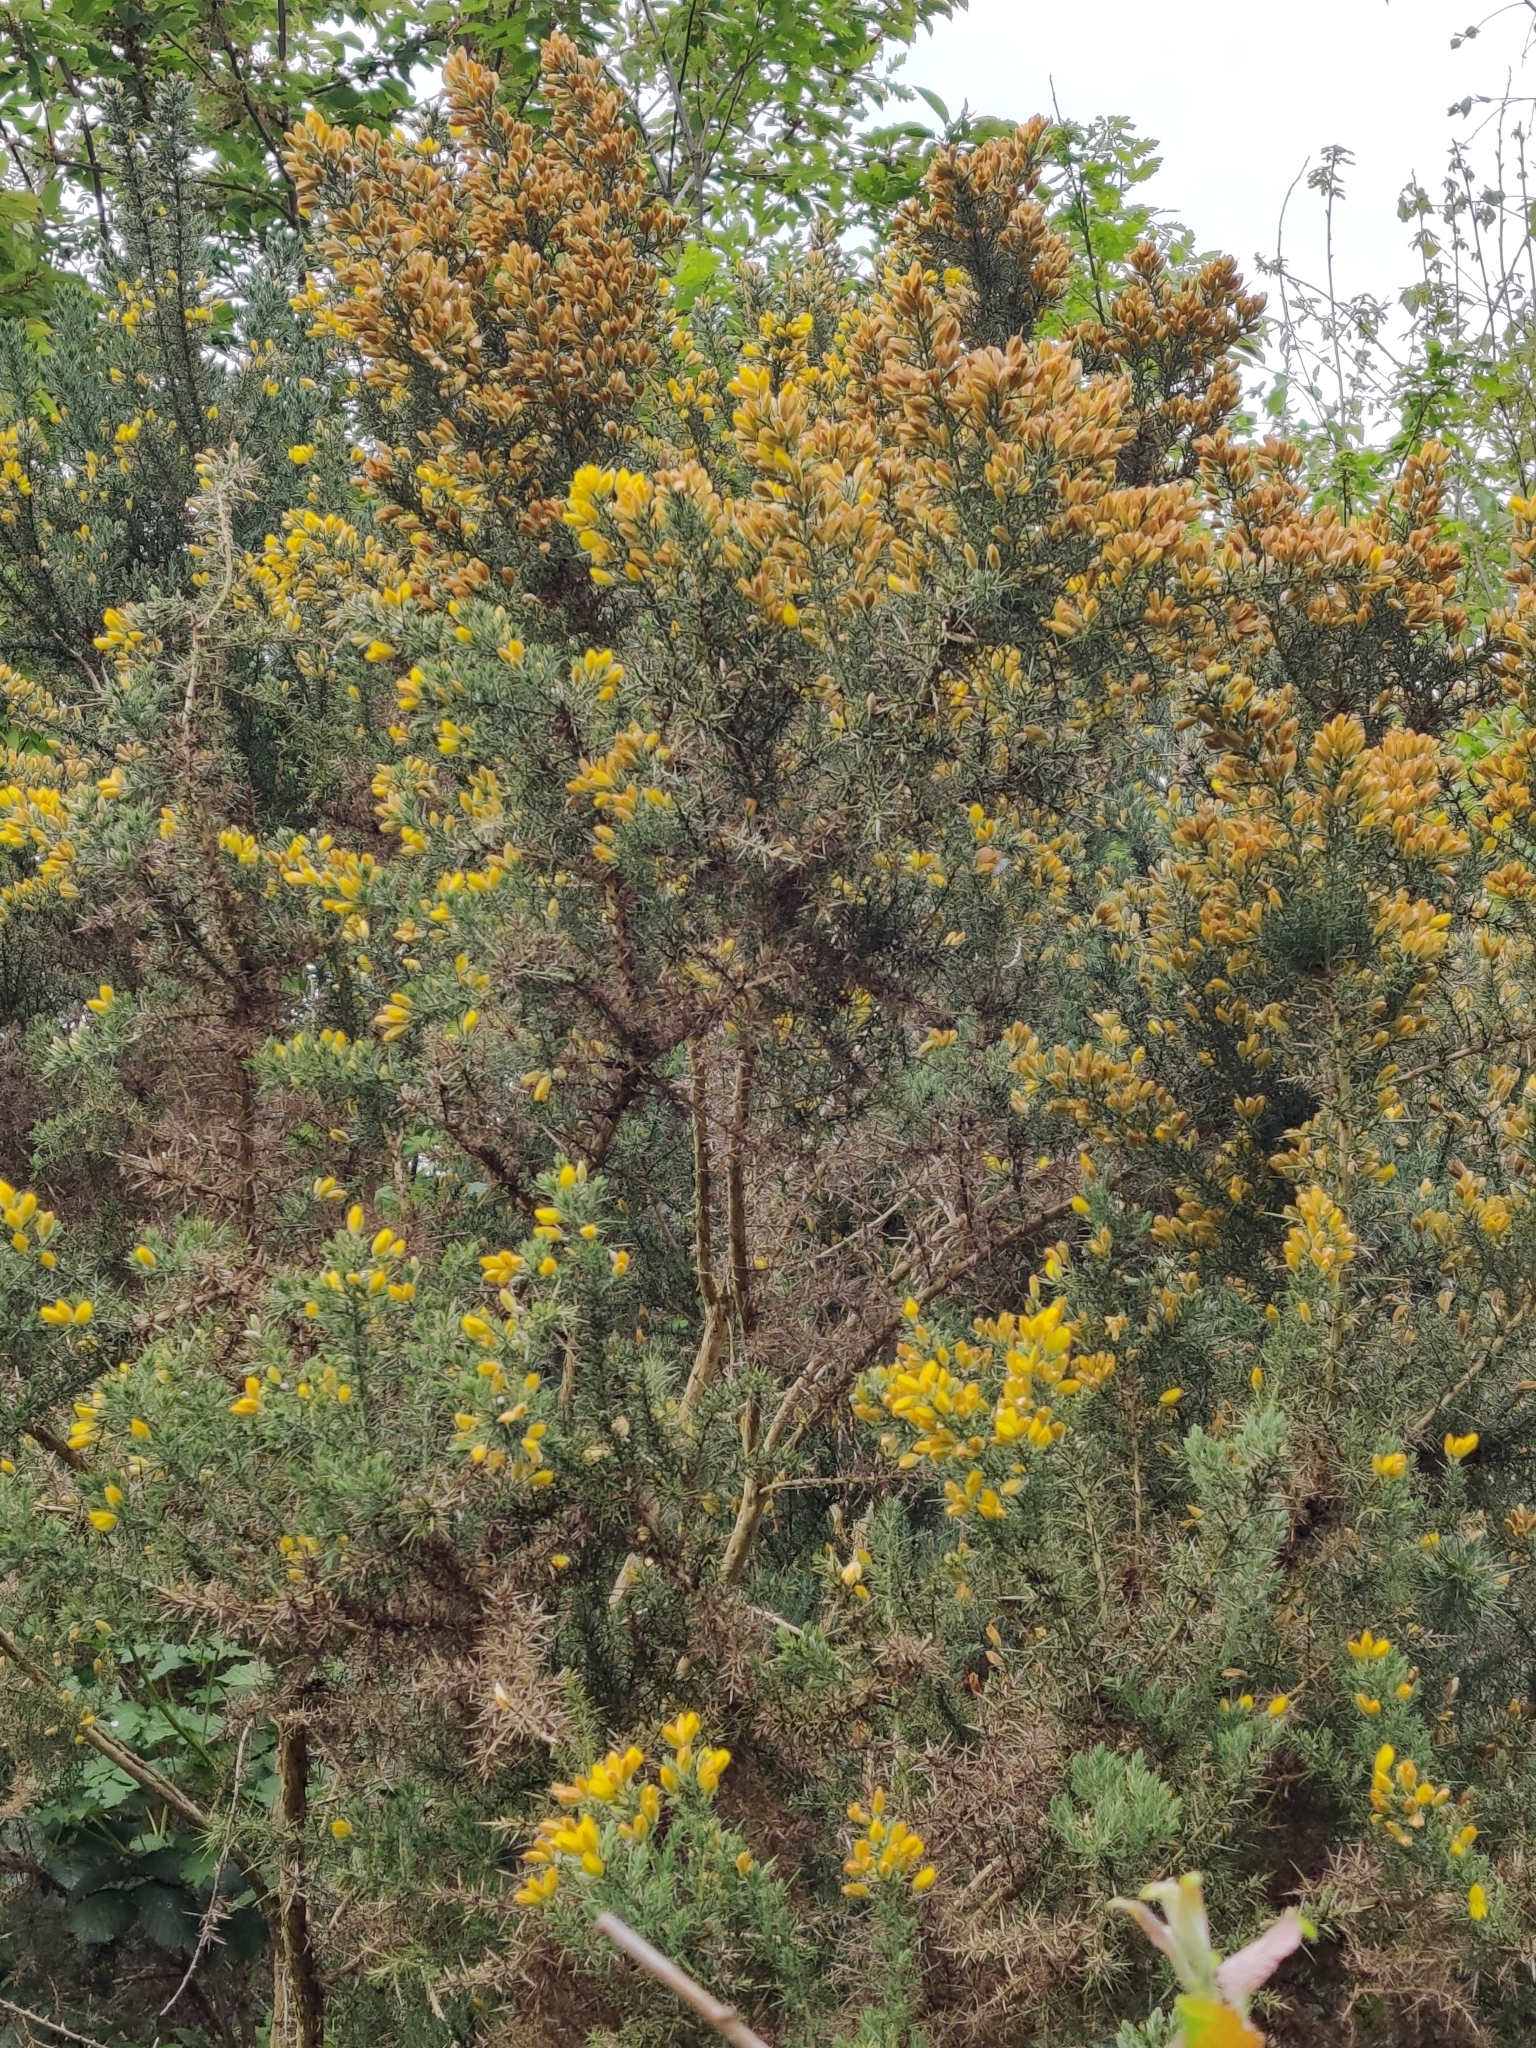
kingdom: Plantae
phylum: Tracheophyta
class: Magnoliopsida
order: Fabales
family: Fabaceae
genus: Ulex
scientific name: Ulex europaeus
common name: Common gorse
